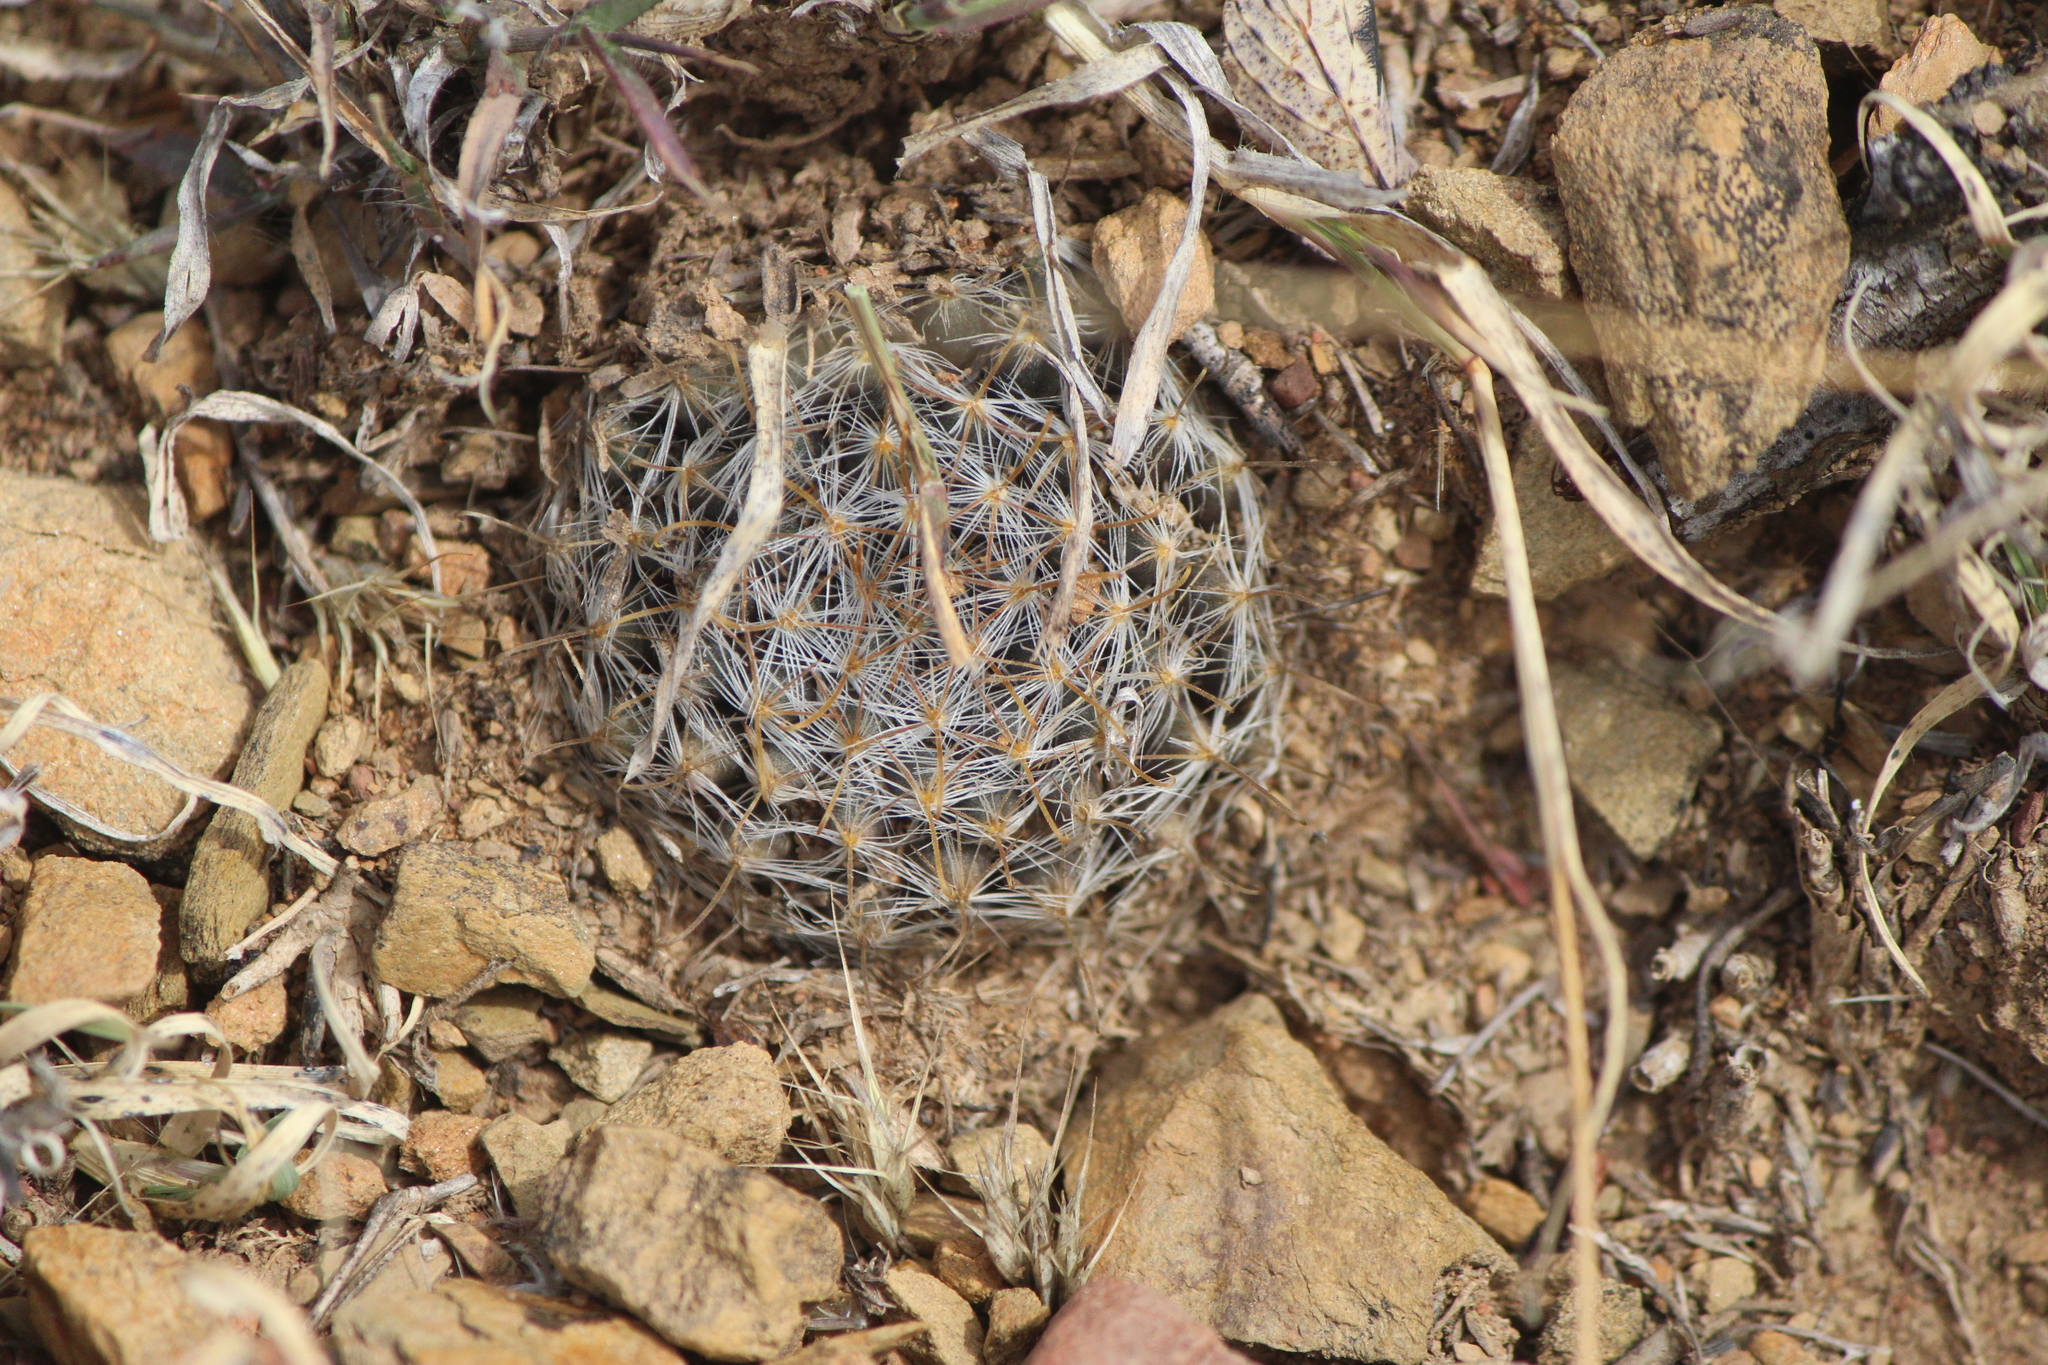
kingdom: Plantae
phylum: Tracheophyta
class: Magnoliopsida
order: Caryophyllales
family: Cactaceae
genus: Mammillaria
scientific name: Mammillaria crinita
